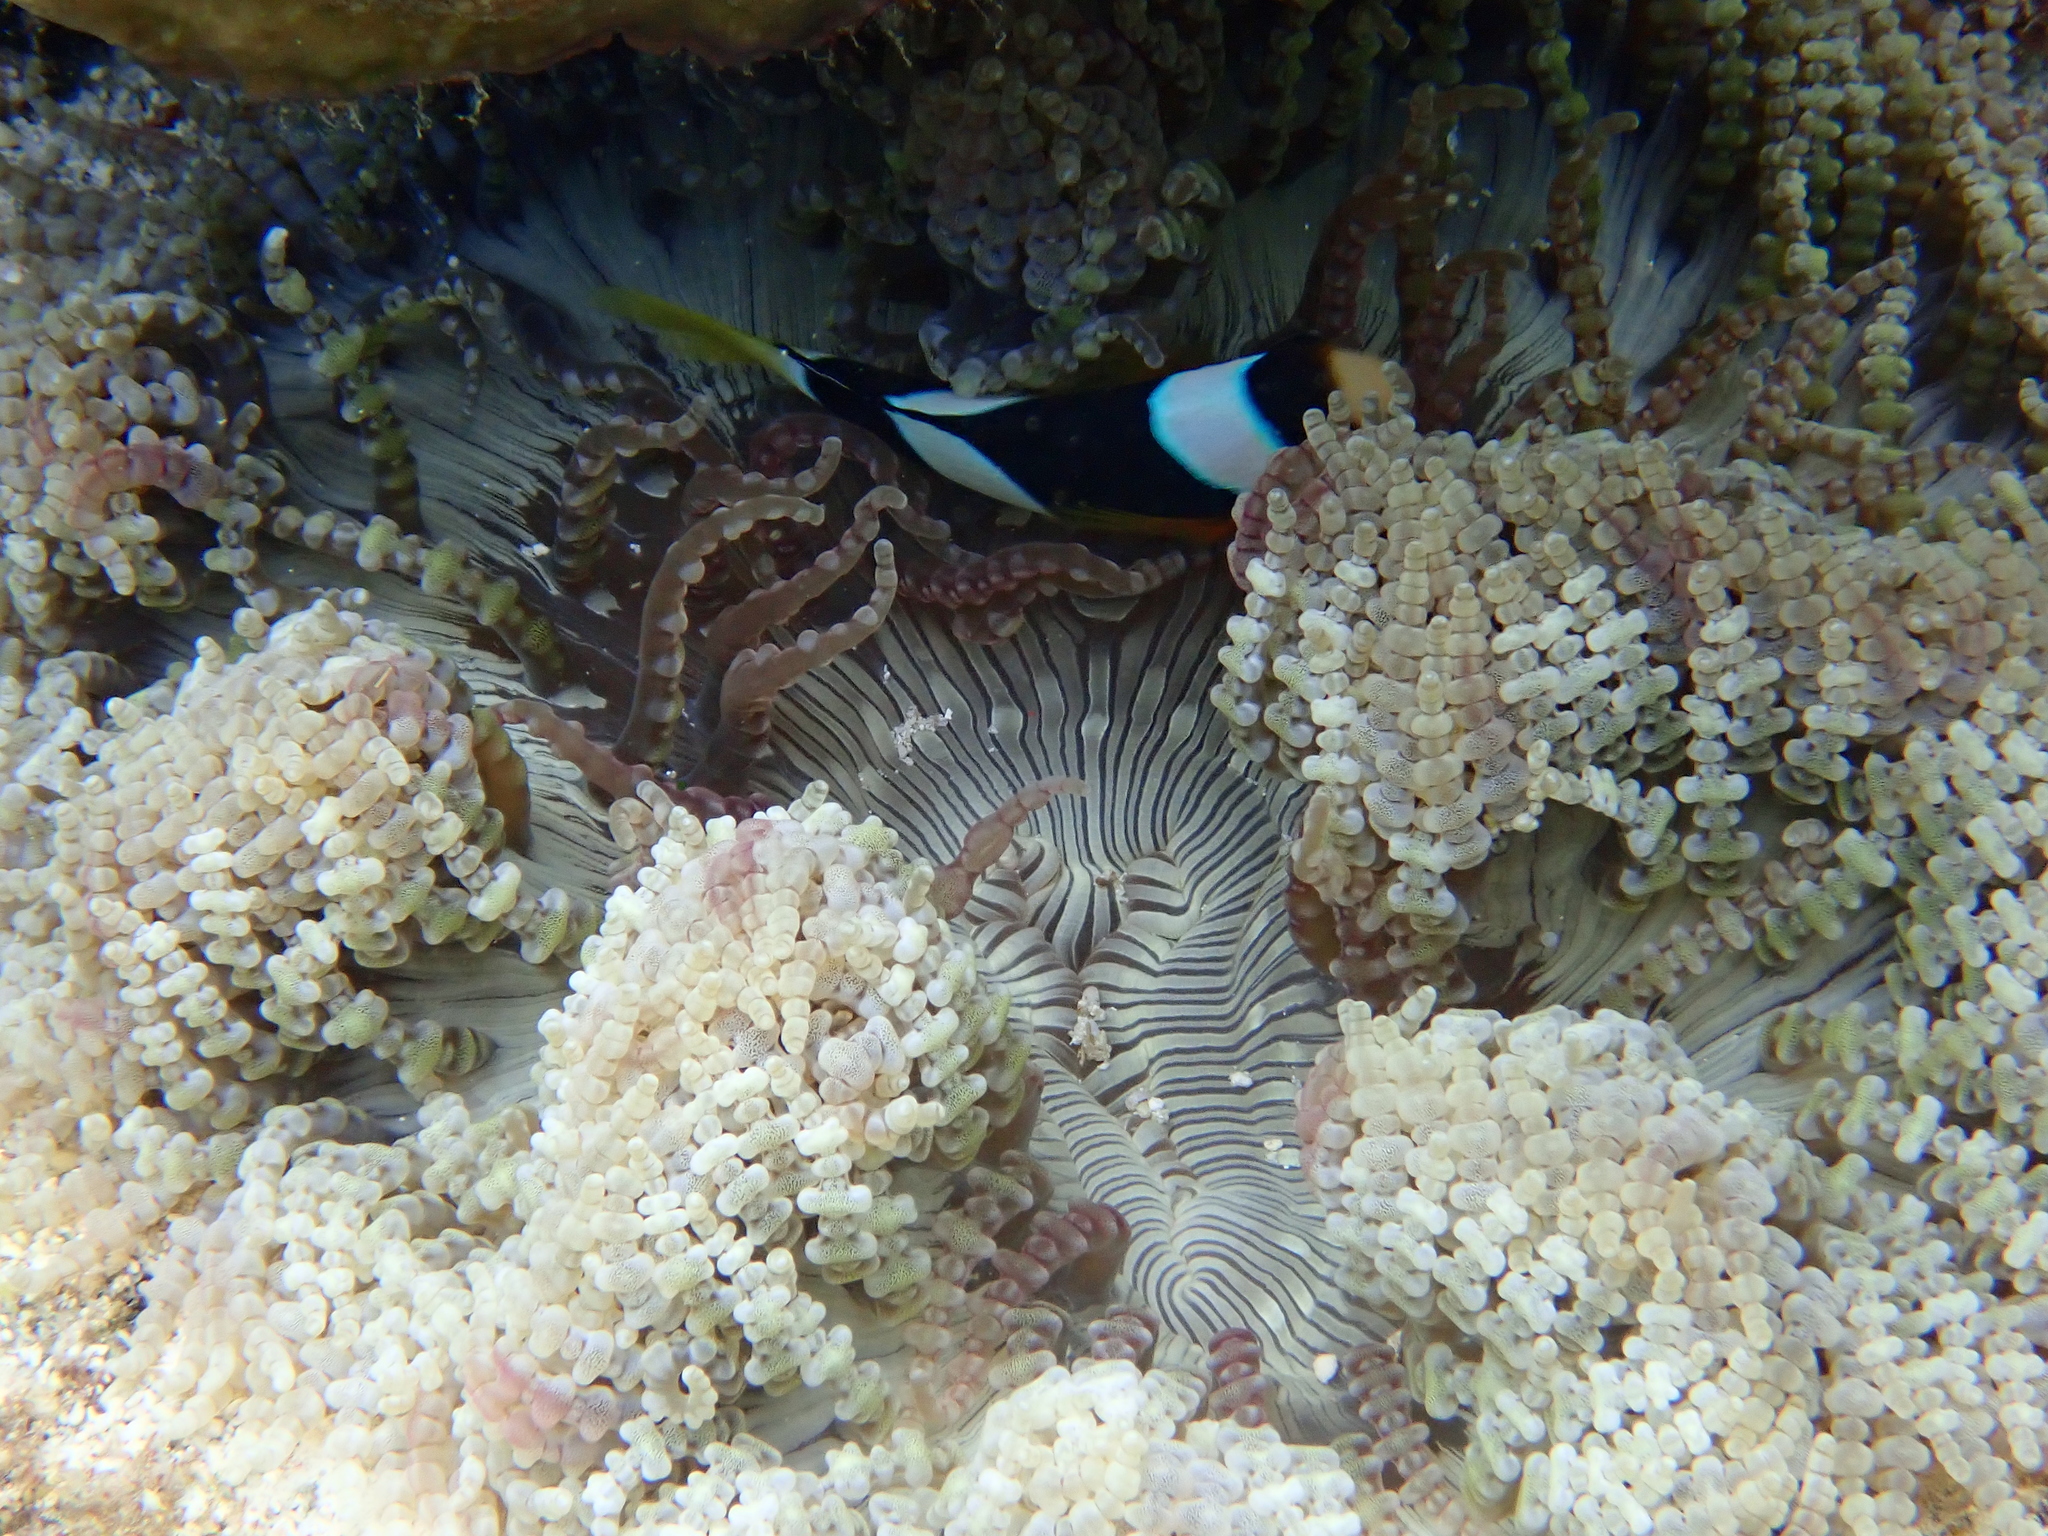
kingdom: Animalia
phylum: Cnidaria
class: Anthozoa
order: Actiniaria
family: Heteractidae
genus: Heteractis
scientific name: Heteractis aurora
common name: Beaded sea anemone
